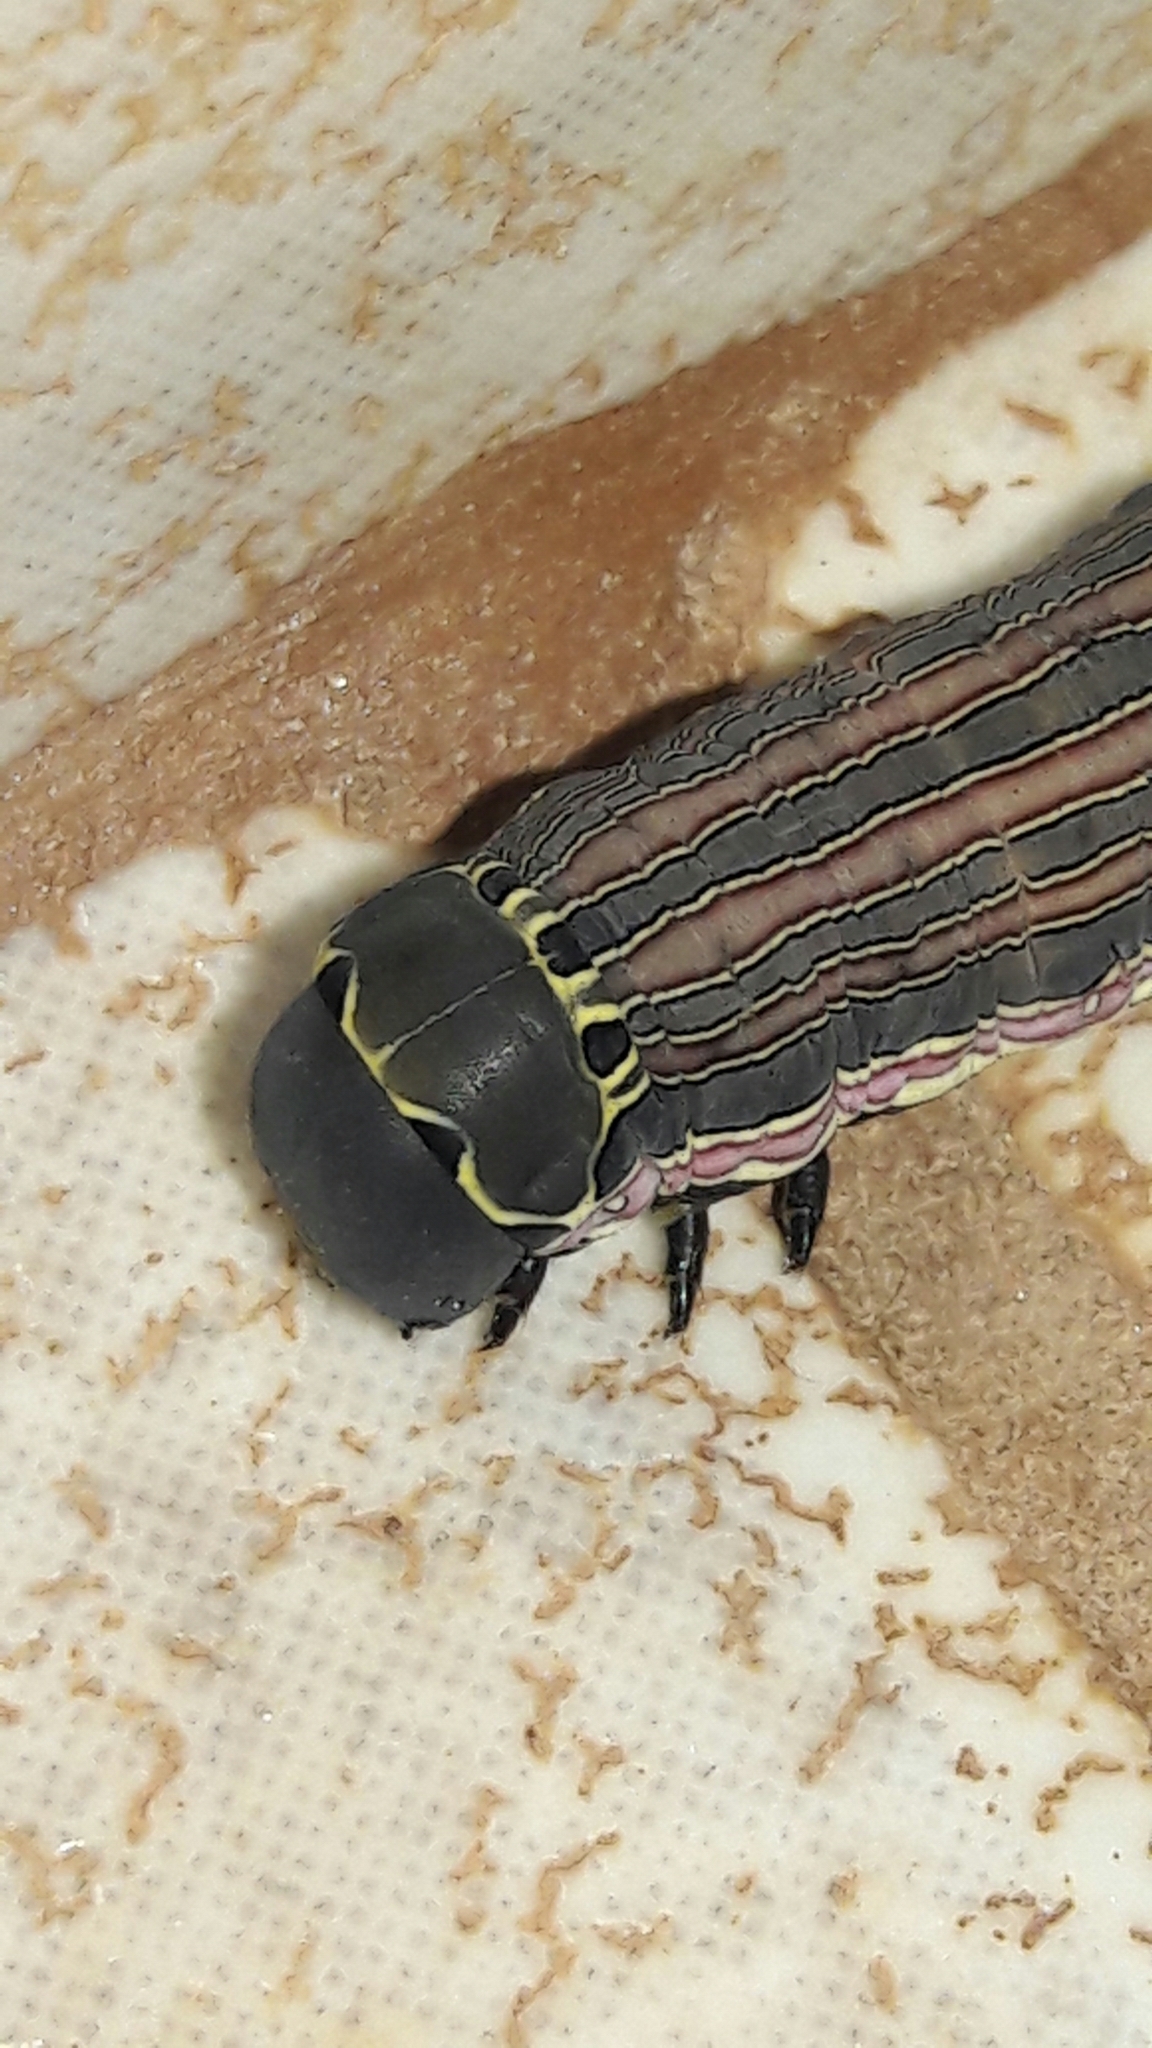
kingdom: Animalia
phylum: Arthropoda
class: Insecta
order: Lepidoptera
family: Sphingidae
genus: Isognathus
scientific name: Isognathus scyron
